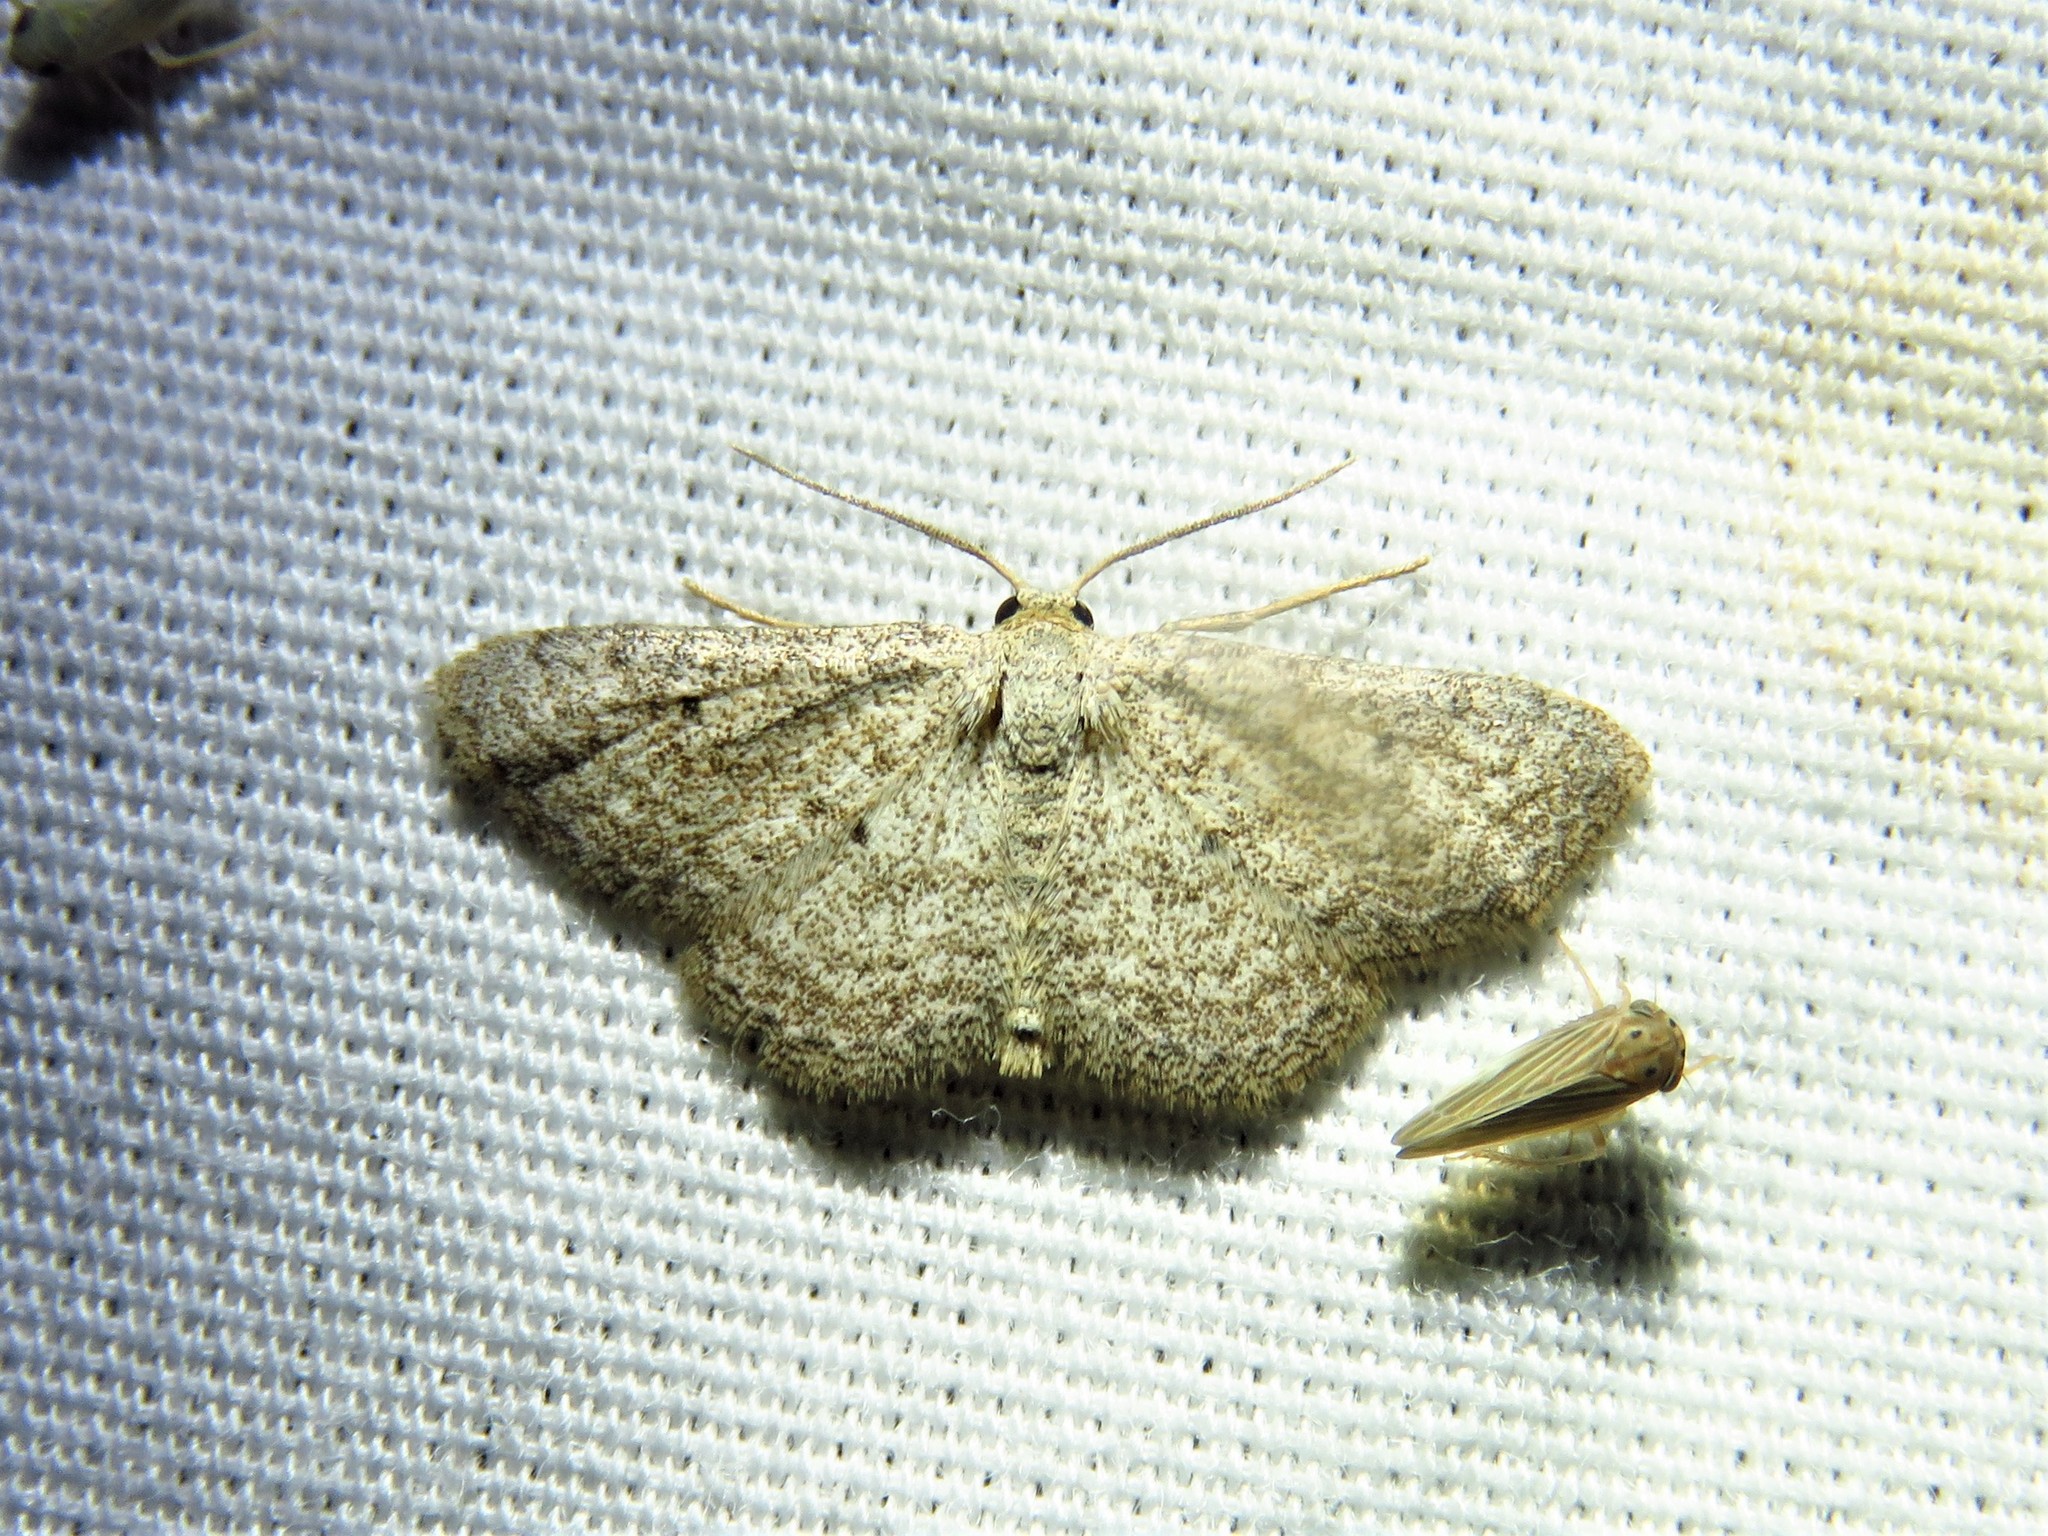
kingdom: Animalia
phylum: Arthropoda
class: Insecta
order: Lepidoptera
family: Geometridae
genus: Lobocleta
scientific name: Lobocleta ossularia
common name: Drab brown wave
